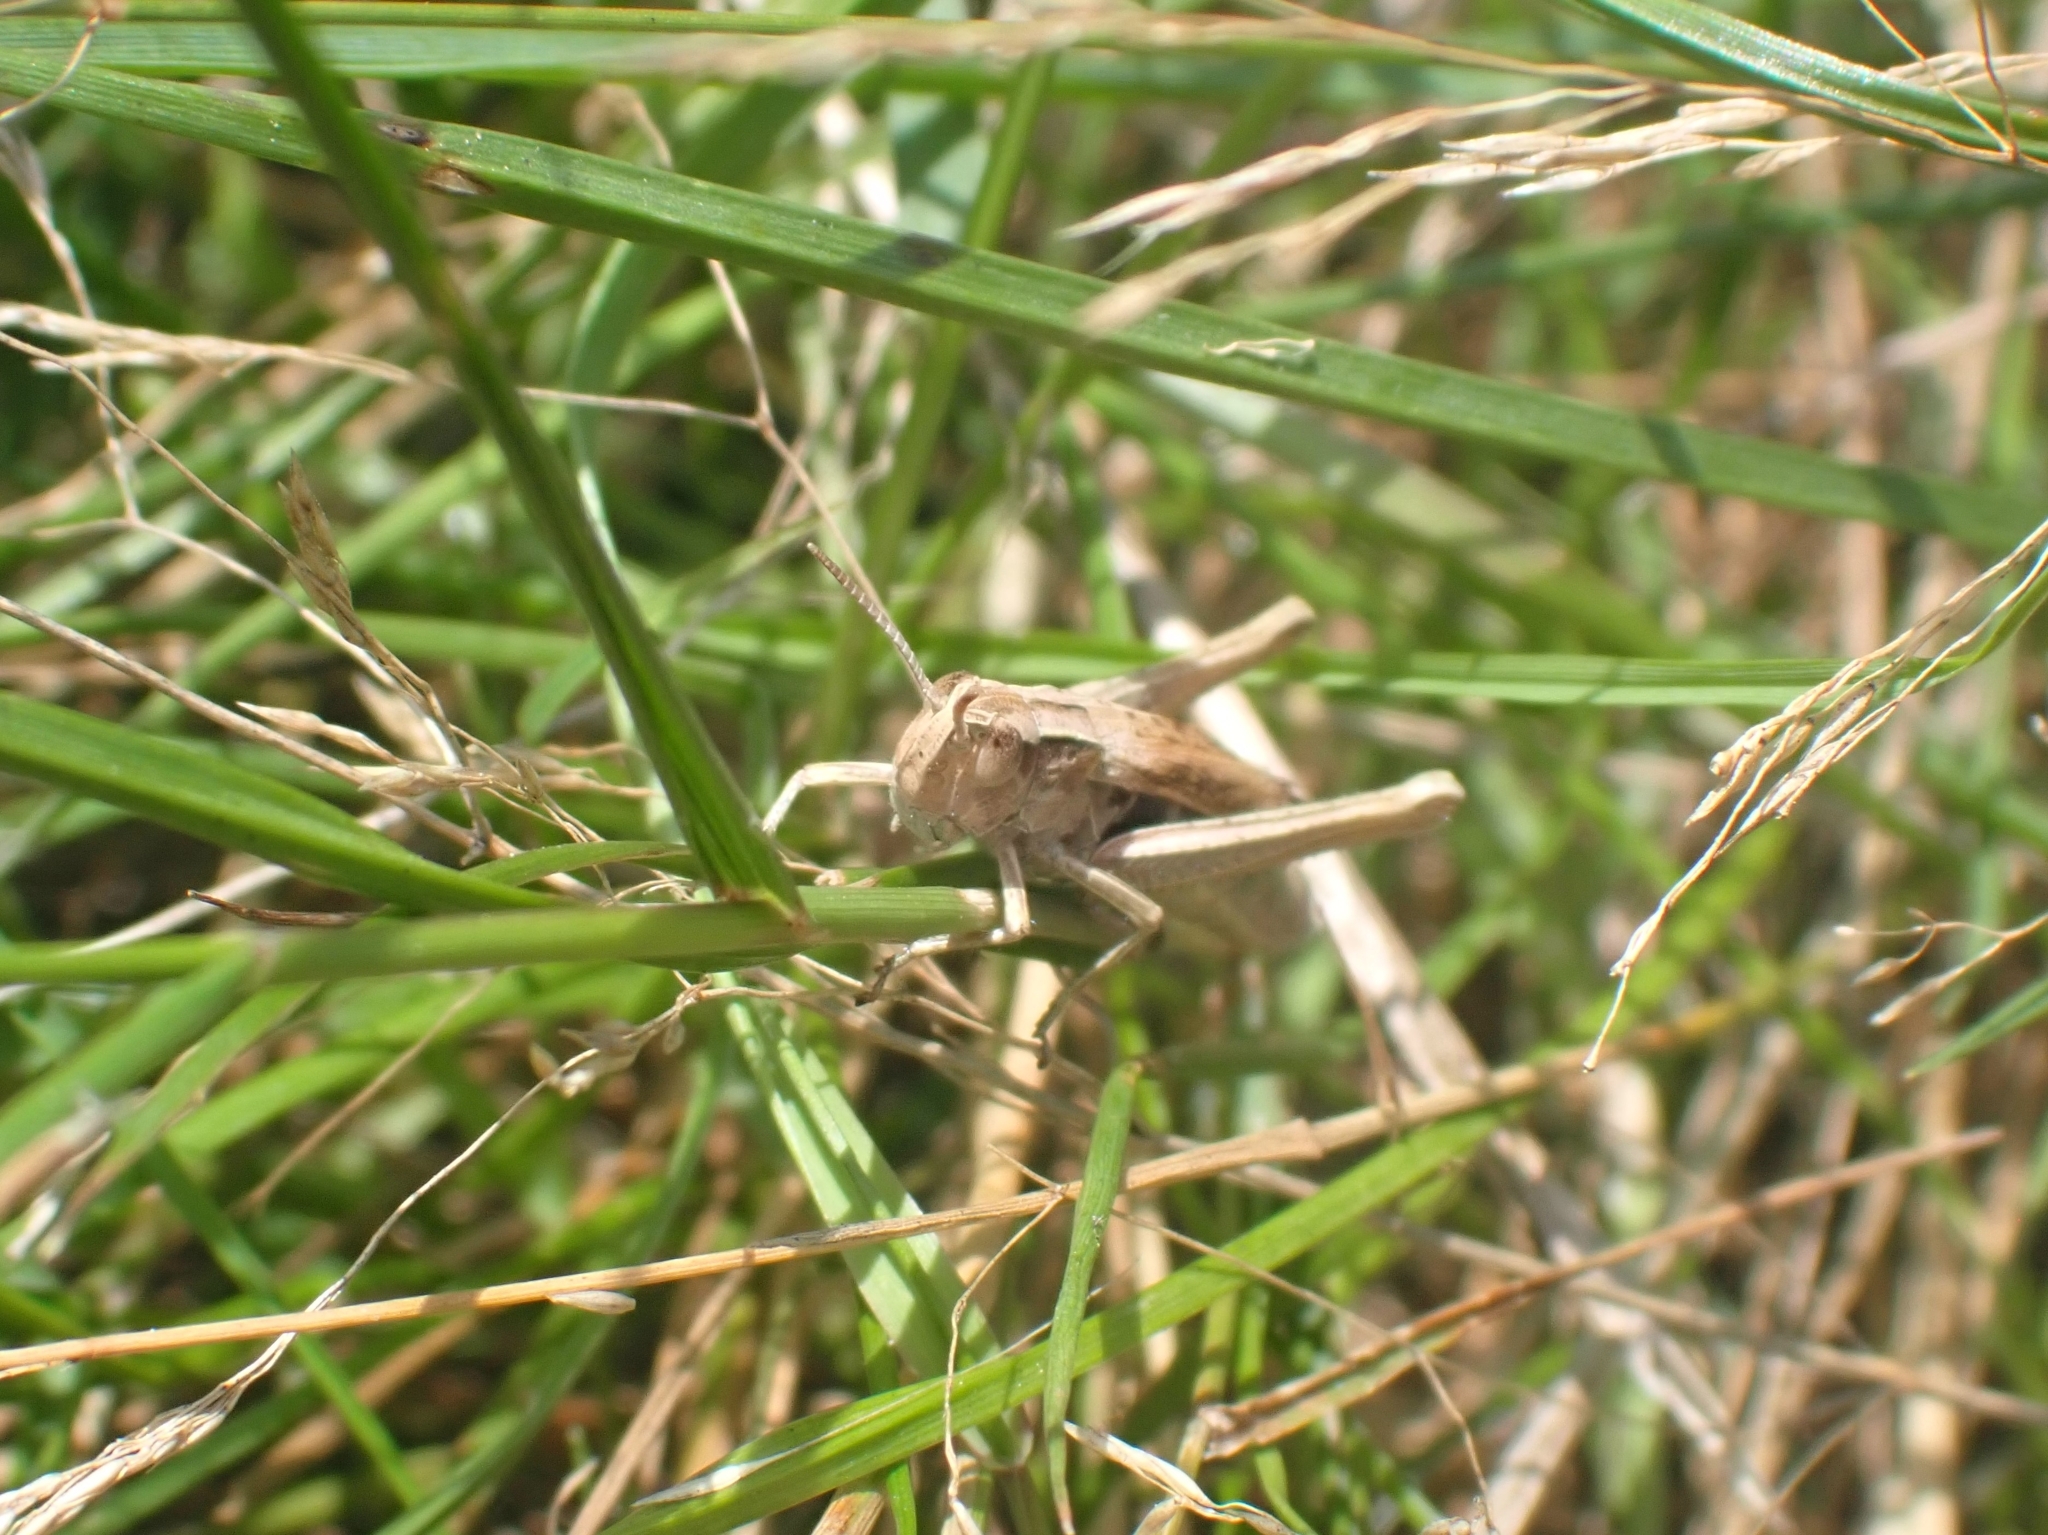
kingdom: Animalia
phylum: Arthropoda
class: Insecta
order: Orthoptera
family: Acrididae
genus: Chorthippus
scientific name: Chorthippus albomarginatus
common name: Lesser marsh grasshopper
